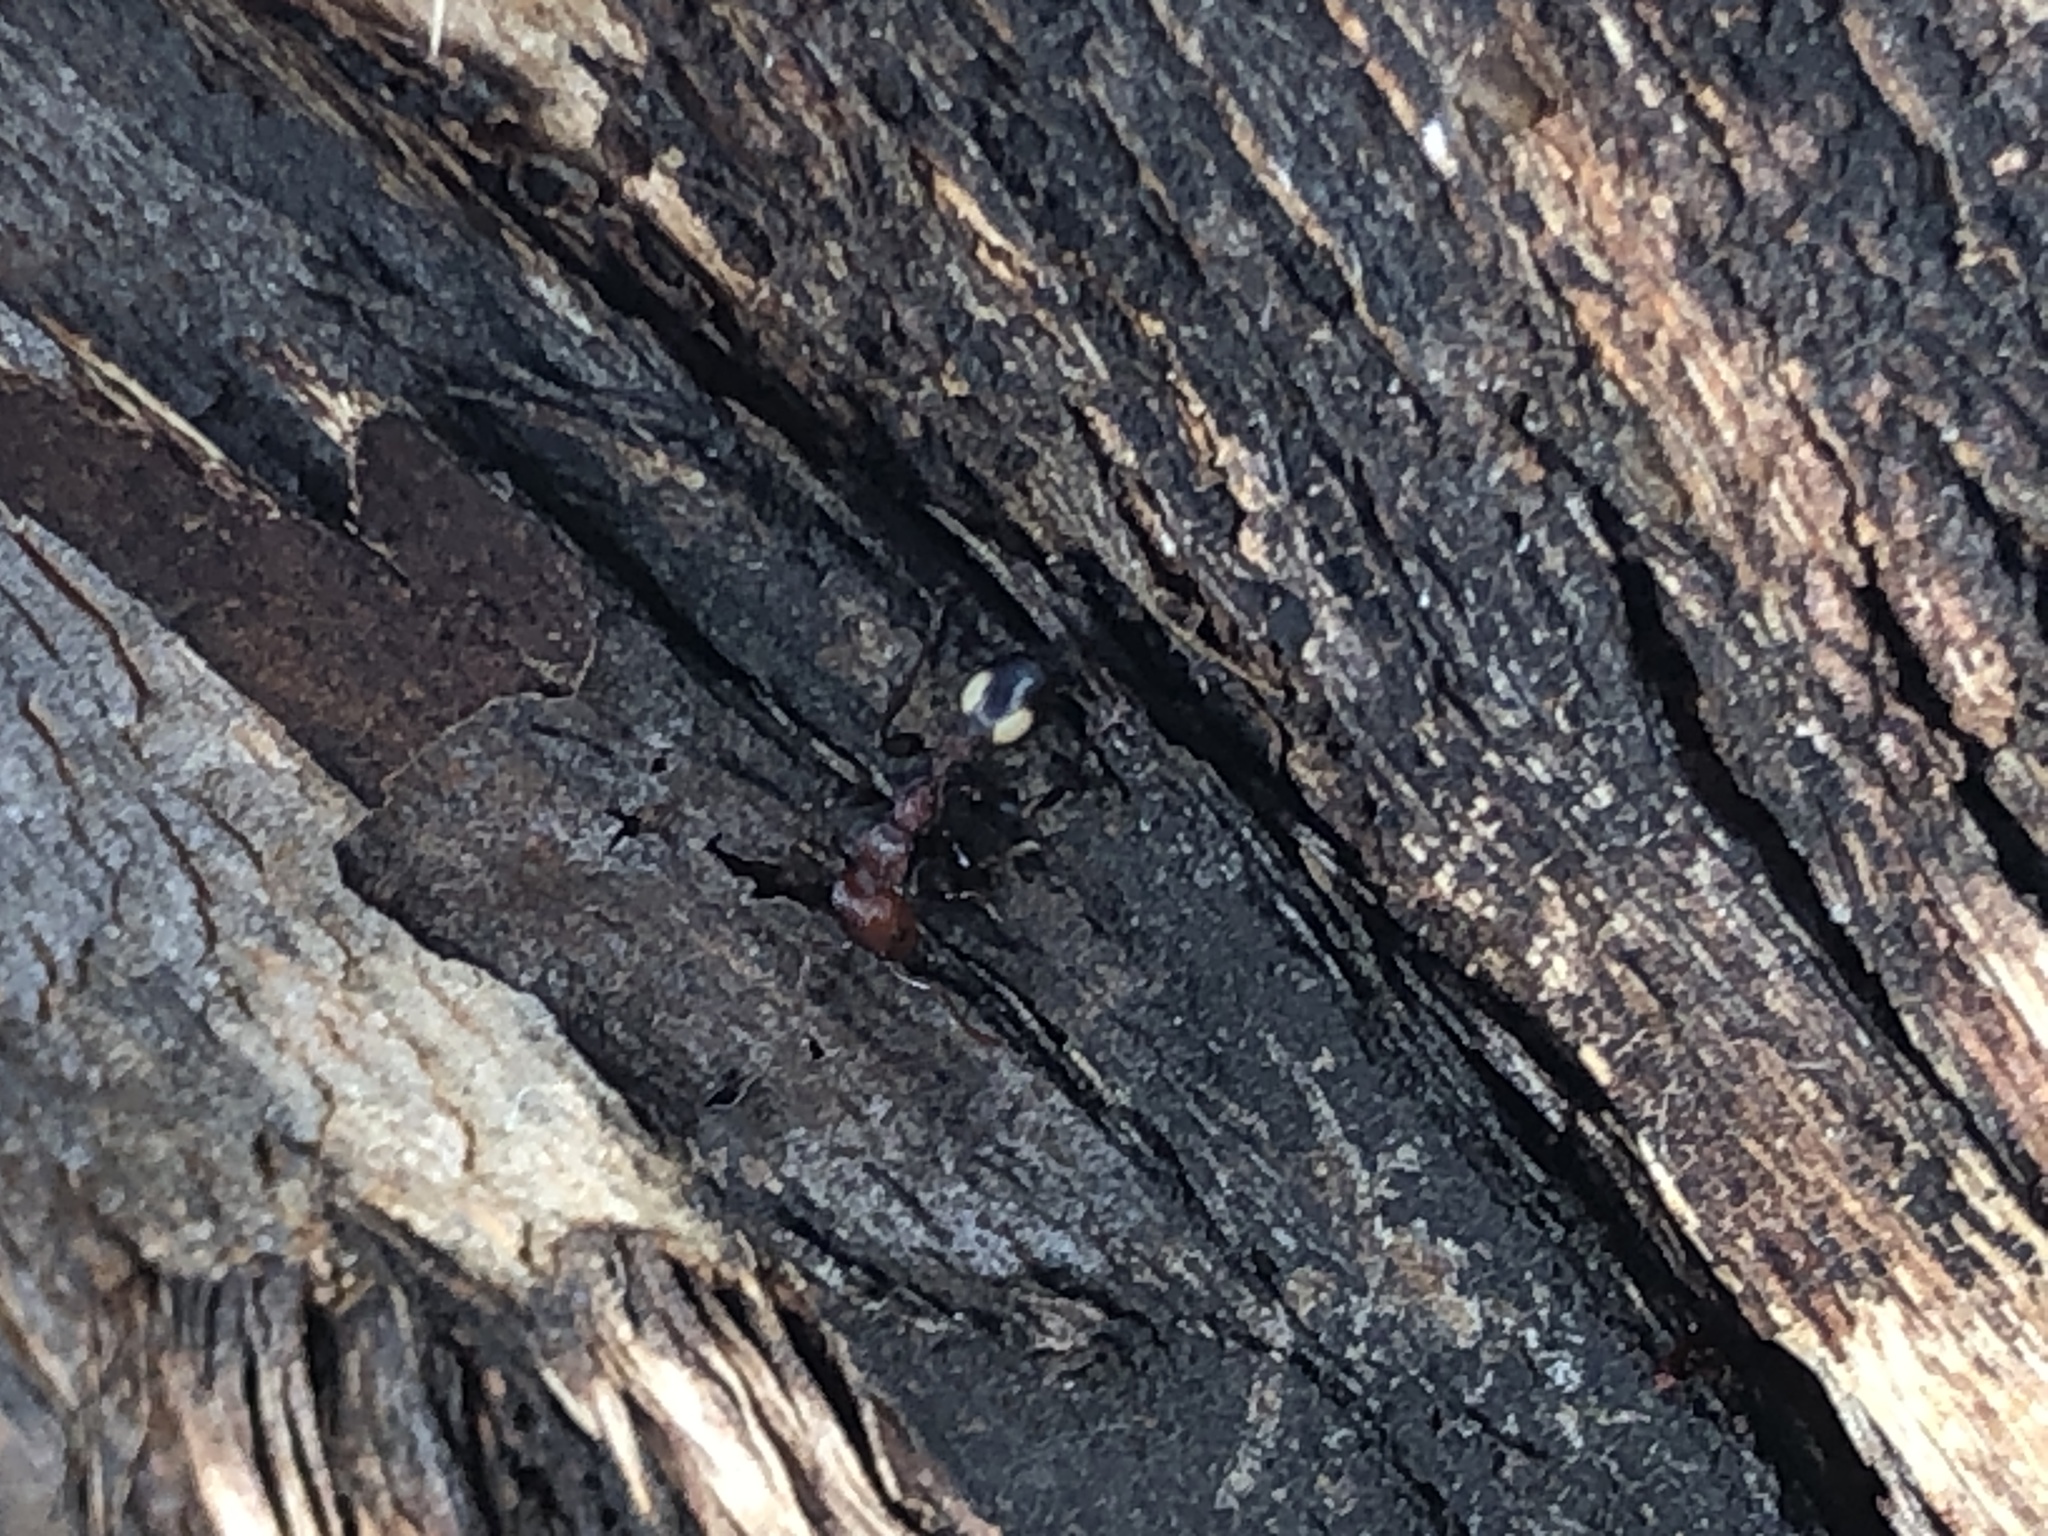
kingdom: Animalia
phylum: Arthropoda
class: Insecta
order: Hymenoptera
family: Formicidae
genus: Podomyrma
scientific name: Podomyrma adelaidae
